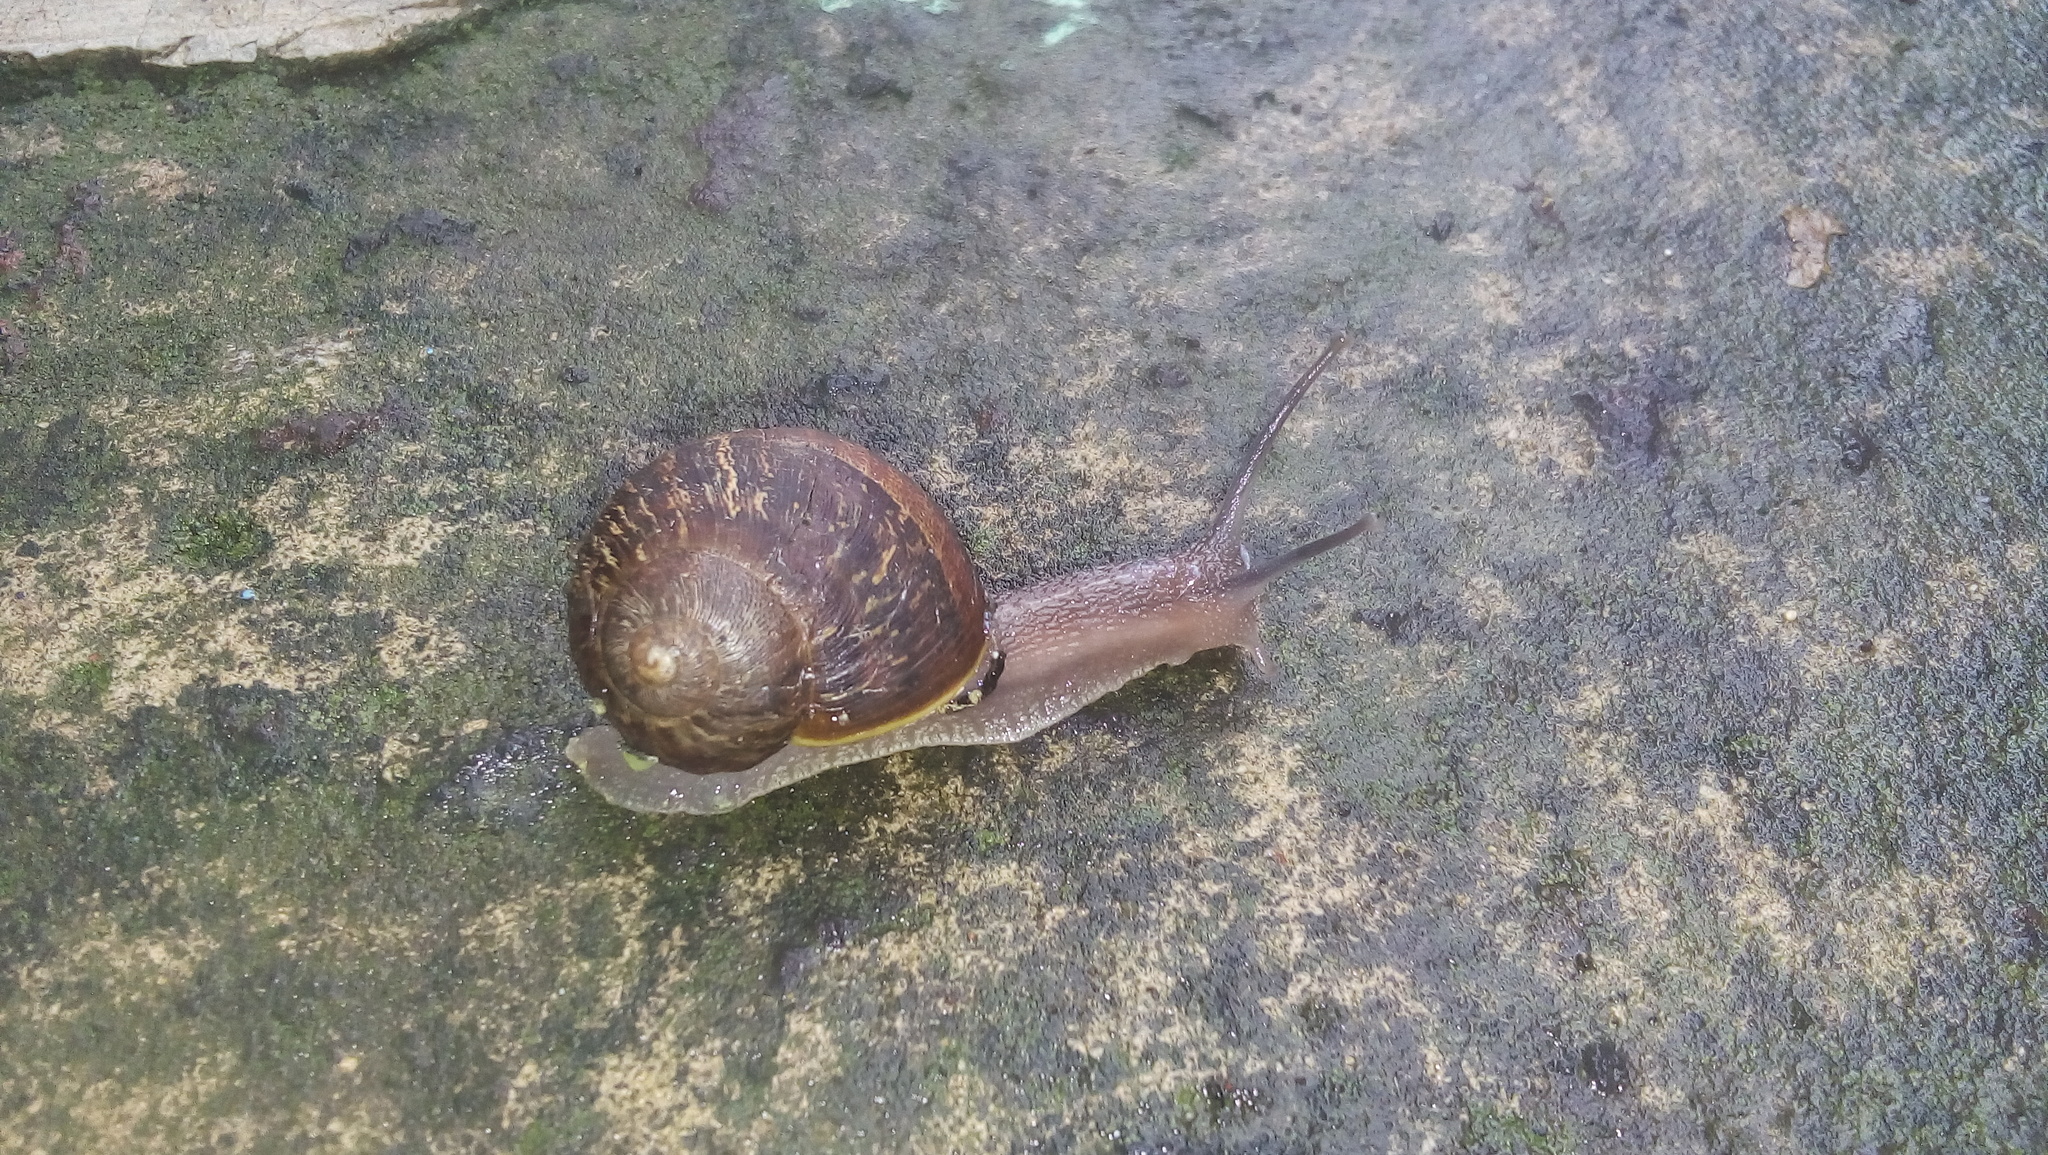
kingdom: Animalia
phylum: Mollusca
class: Gastropoda
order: Stylommatophora
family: Helicidae
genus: Cornu
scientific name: Cornu aspersum
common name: Brown garden snail
